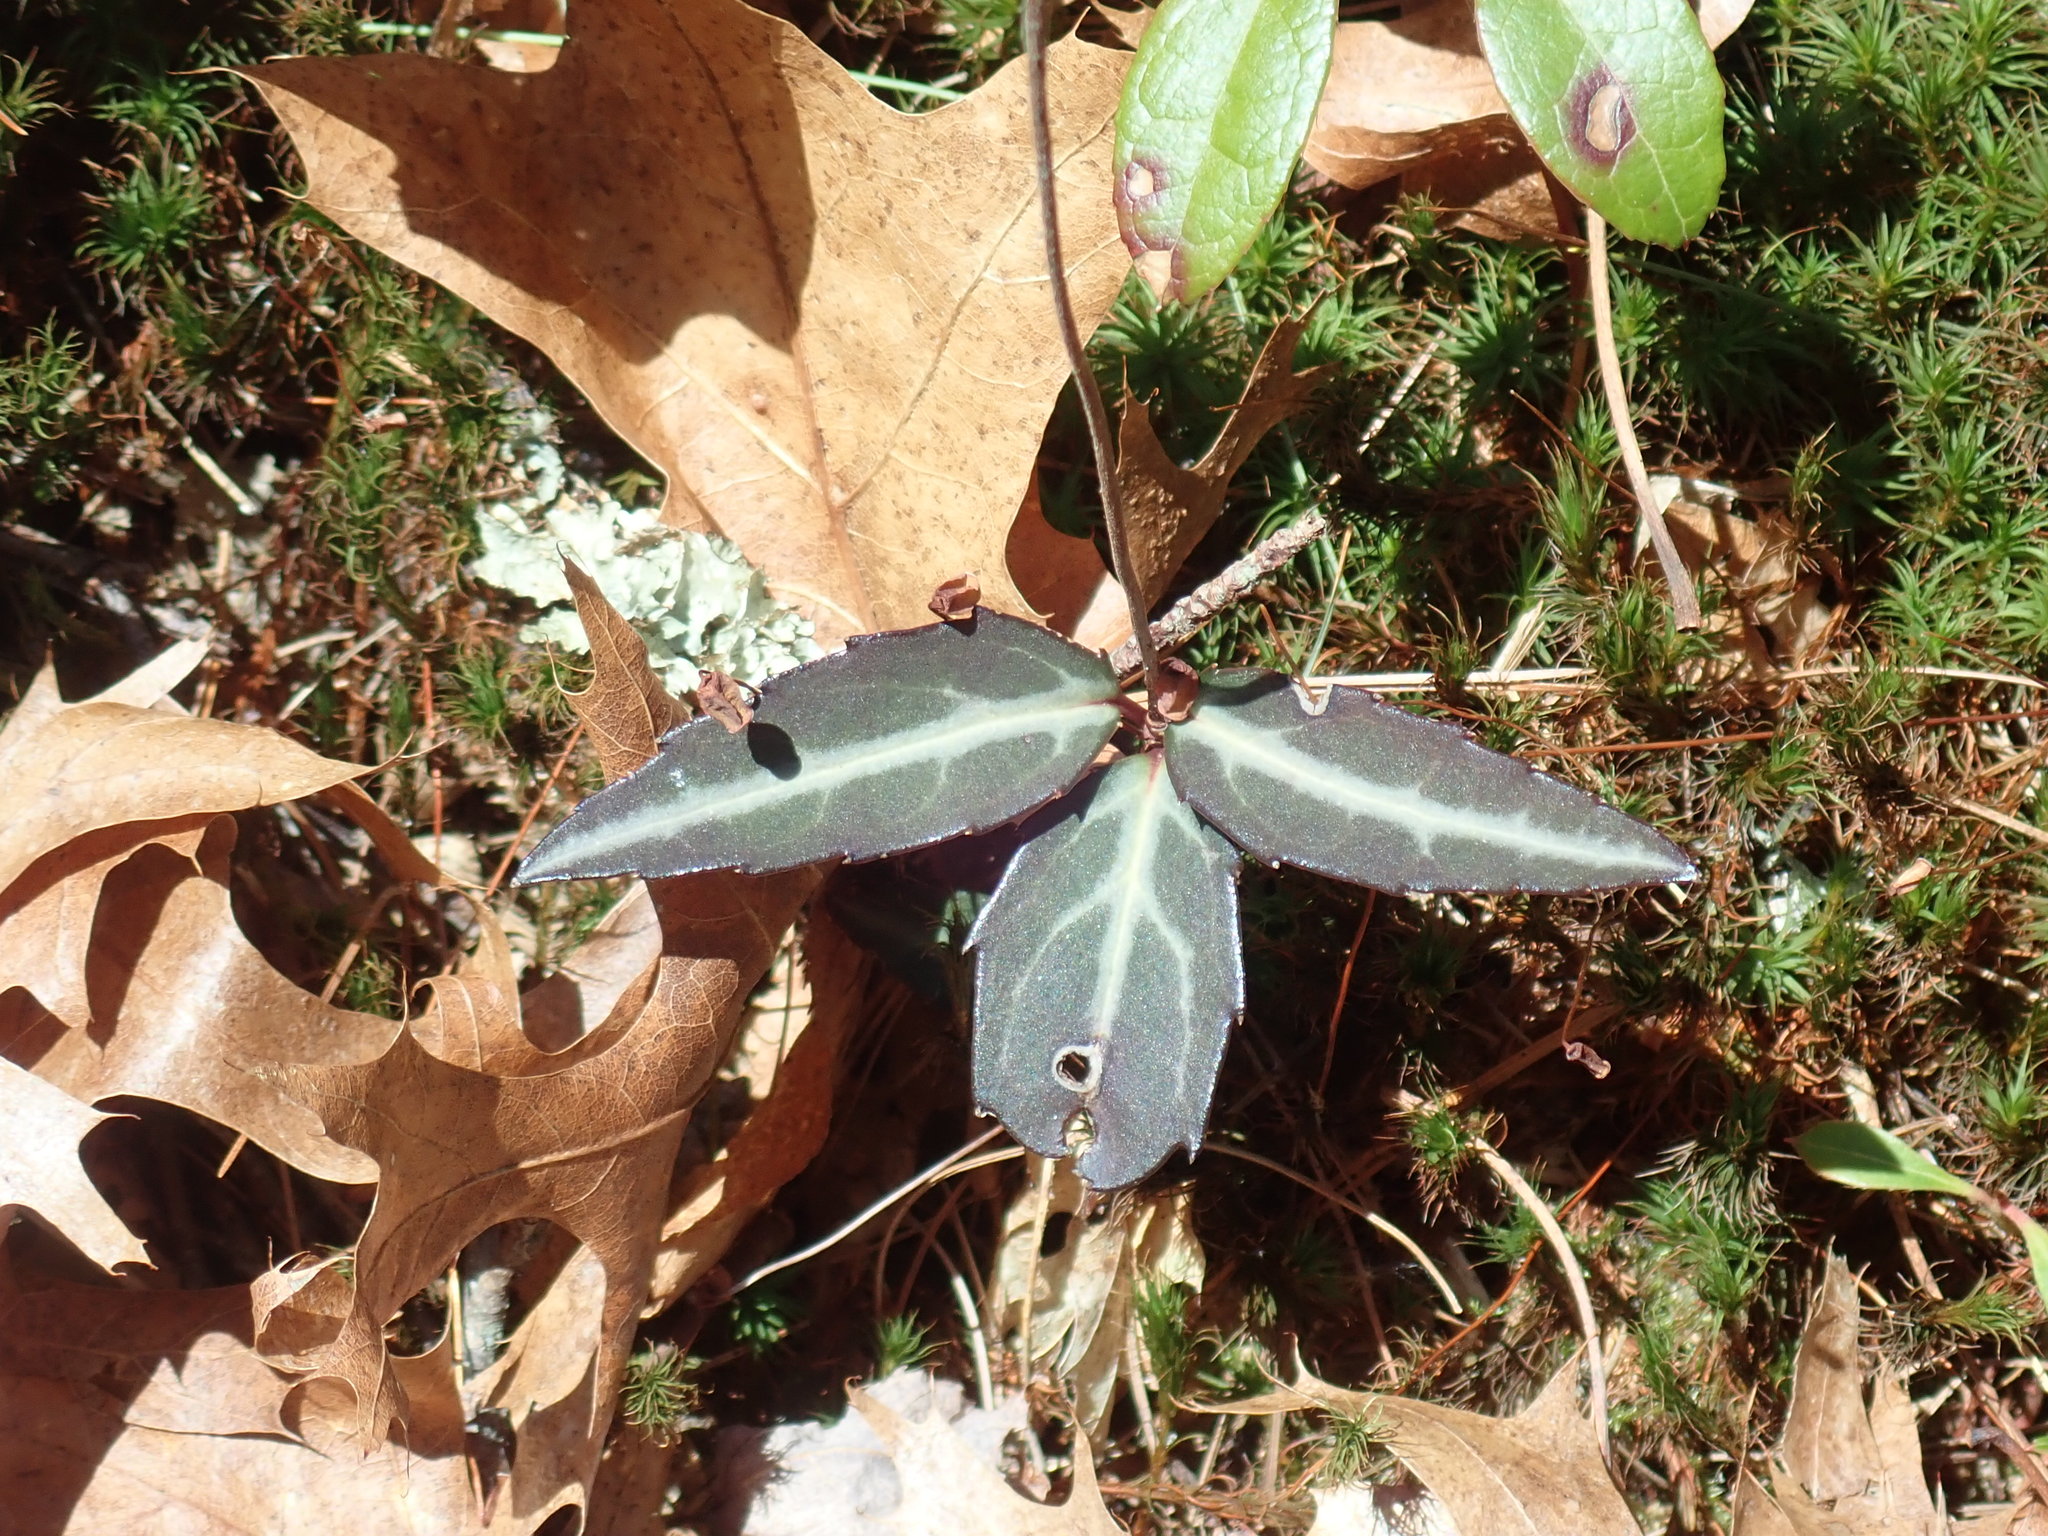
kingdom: Plantae
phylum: Tracheophyta
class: Magnoliopsida
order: Ericales
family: Ericaceae
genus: Chimaphila
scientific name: Chimaphila maculata
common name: Spotted pipsissewa
